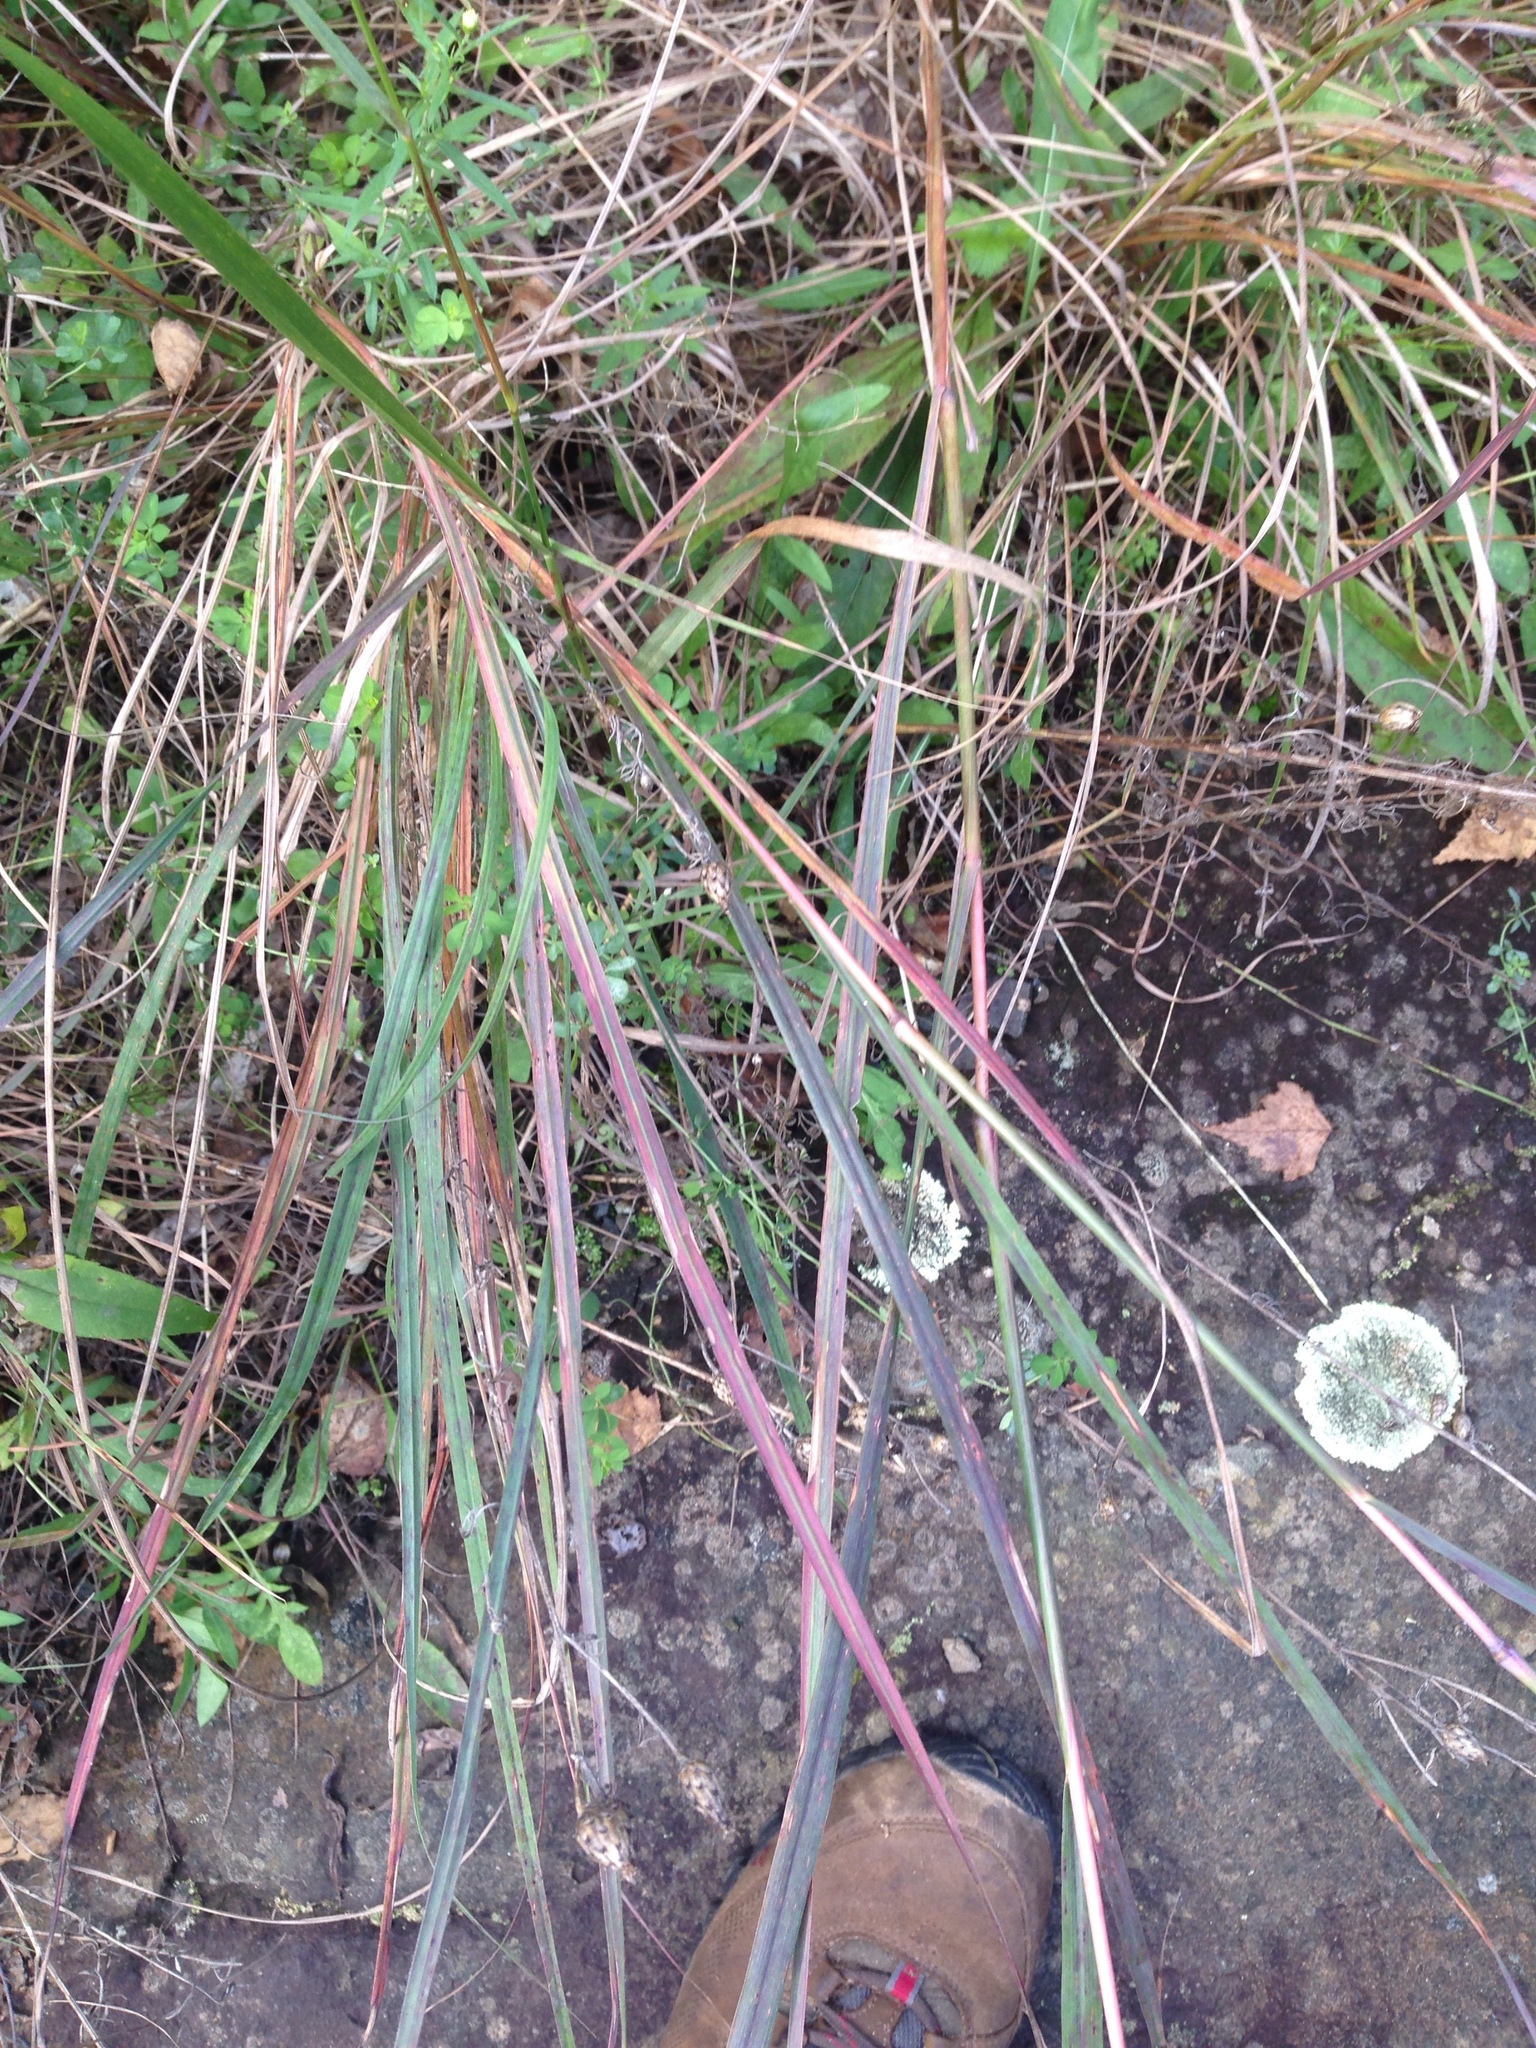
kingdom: Plantae
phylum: Tracheophyta
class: Liliopsida
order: Poales
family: Poaceae
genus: Andropogon
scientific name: Andropogon gerardi
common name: Big bluestem
